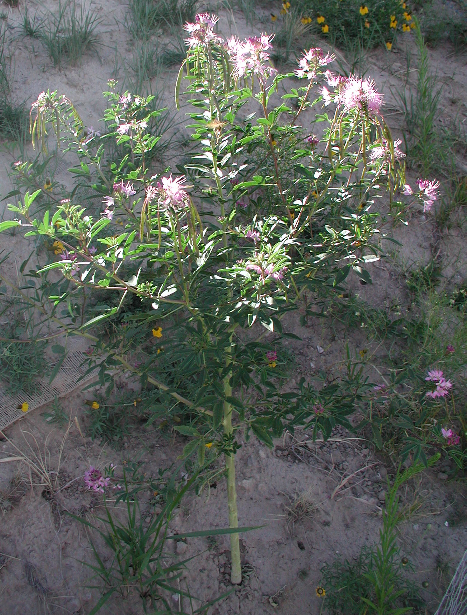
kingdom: Plantae
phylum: Tracheophyta
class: Magnoliopsida
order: Brassicales
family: Cleomaceae
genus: Cleomella
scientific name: Cleomella serrulata
